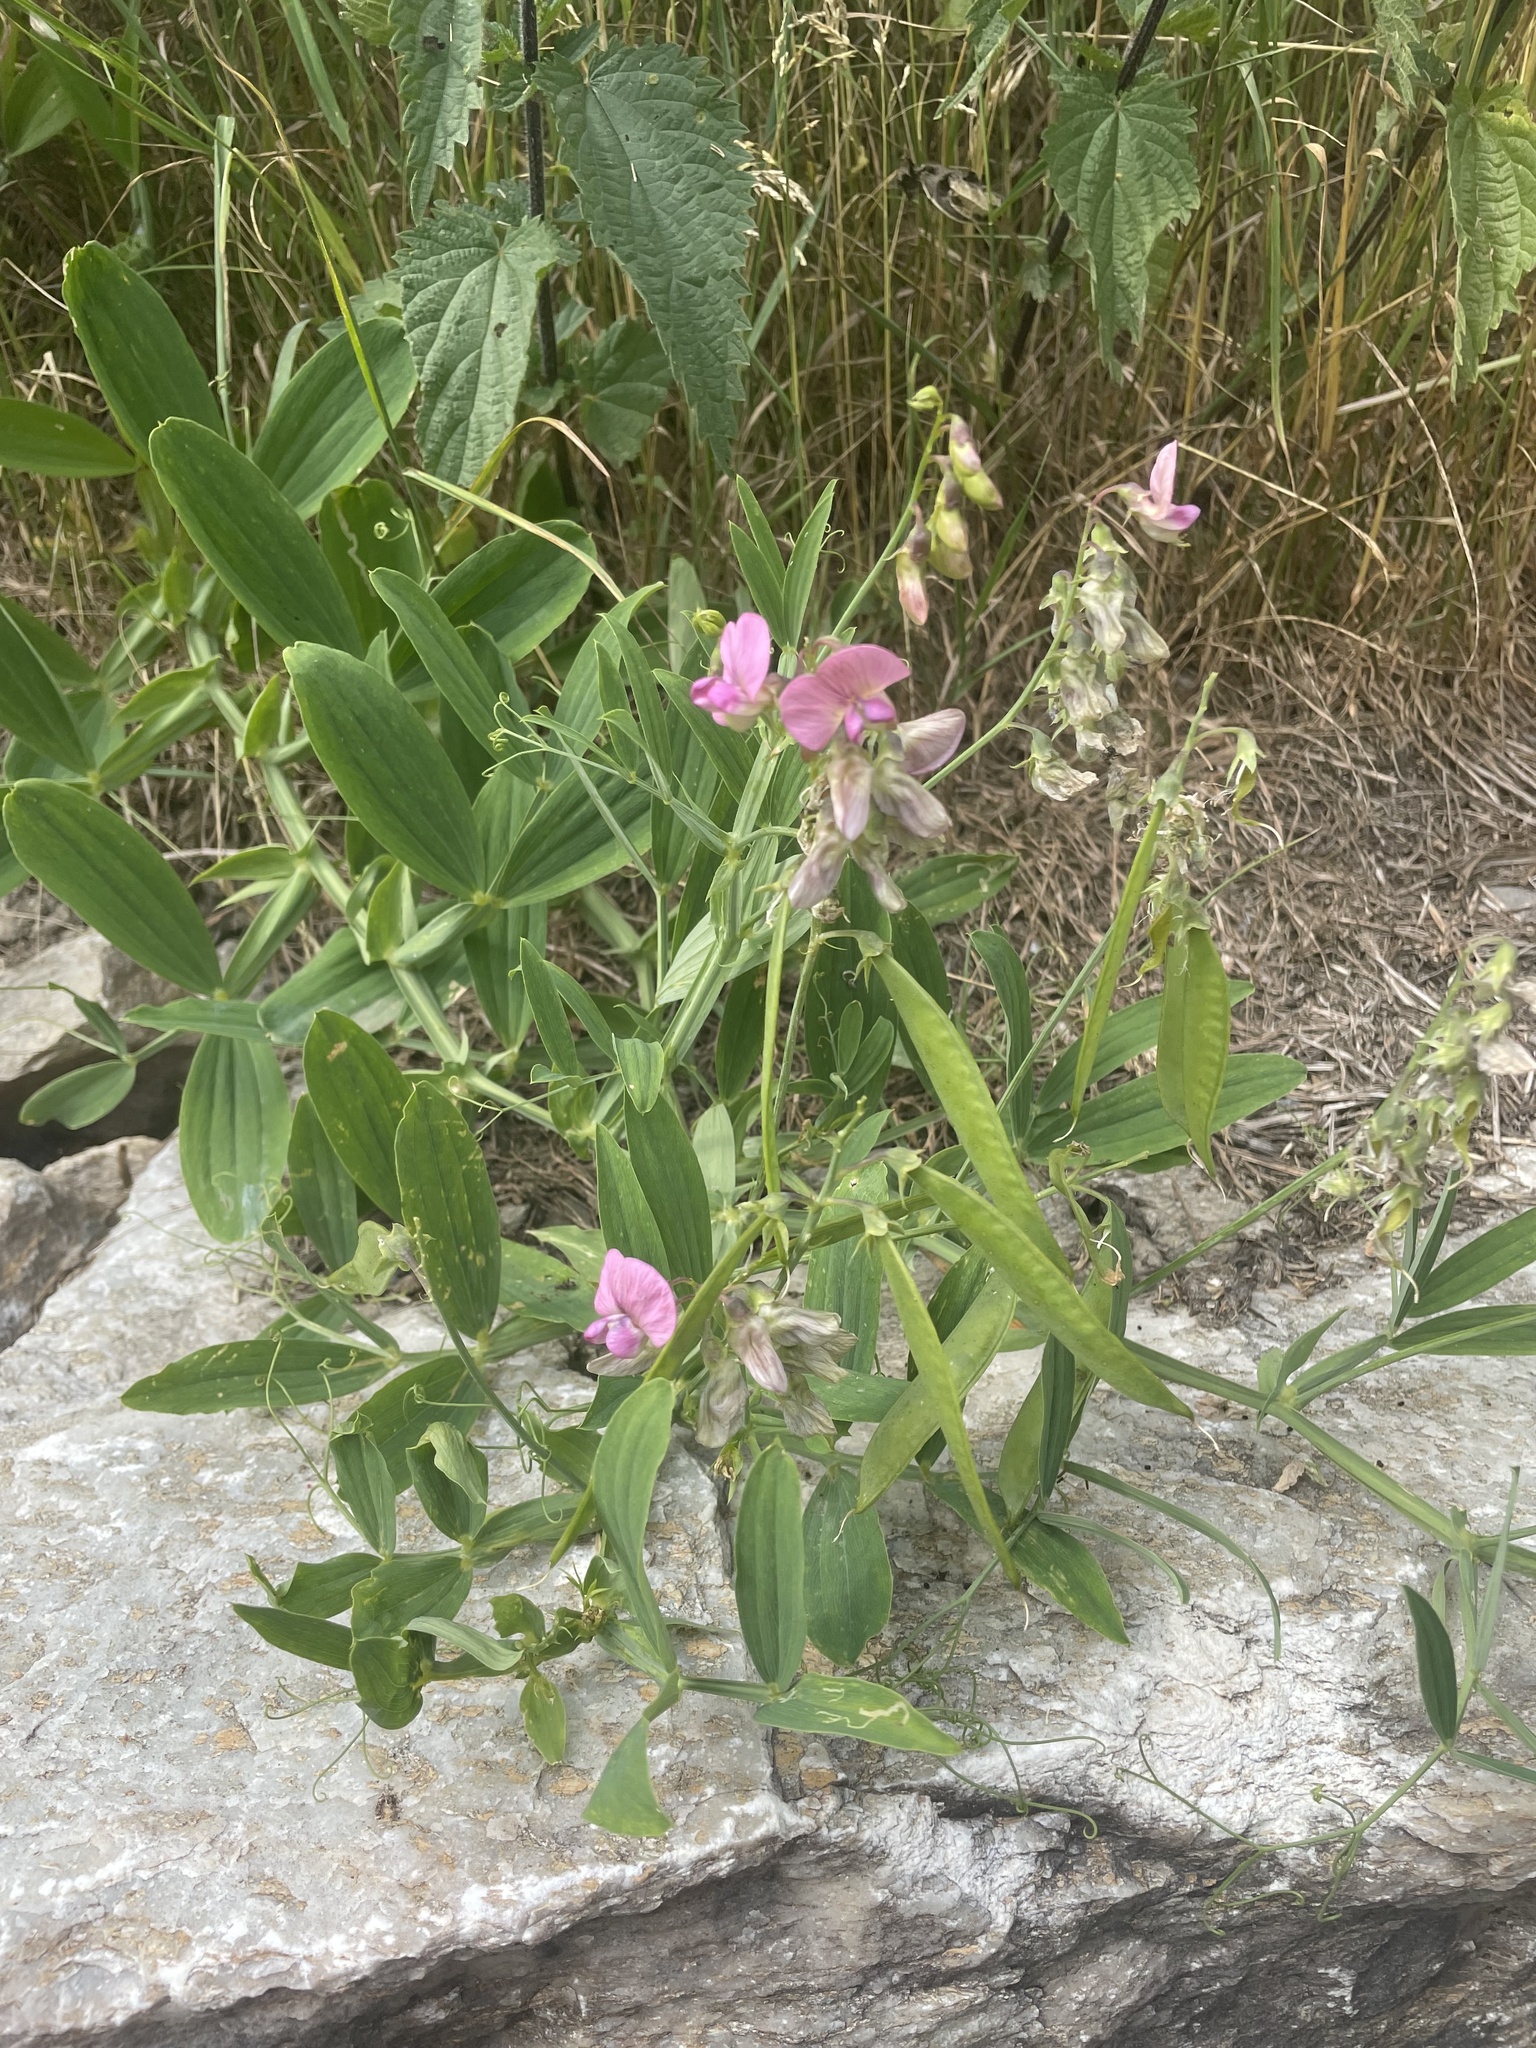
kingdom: Plantae
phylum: Tracheophyta
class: Magnoliopsida
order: Fabales
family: Fabaceae
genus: Lathyrus
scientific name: Lathyrus heterophyllus
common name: Norfolk everlasting-pea
